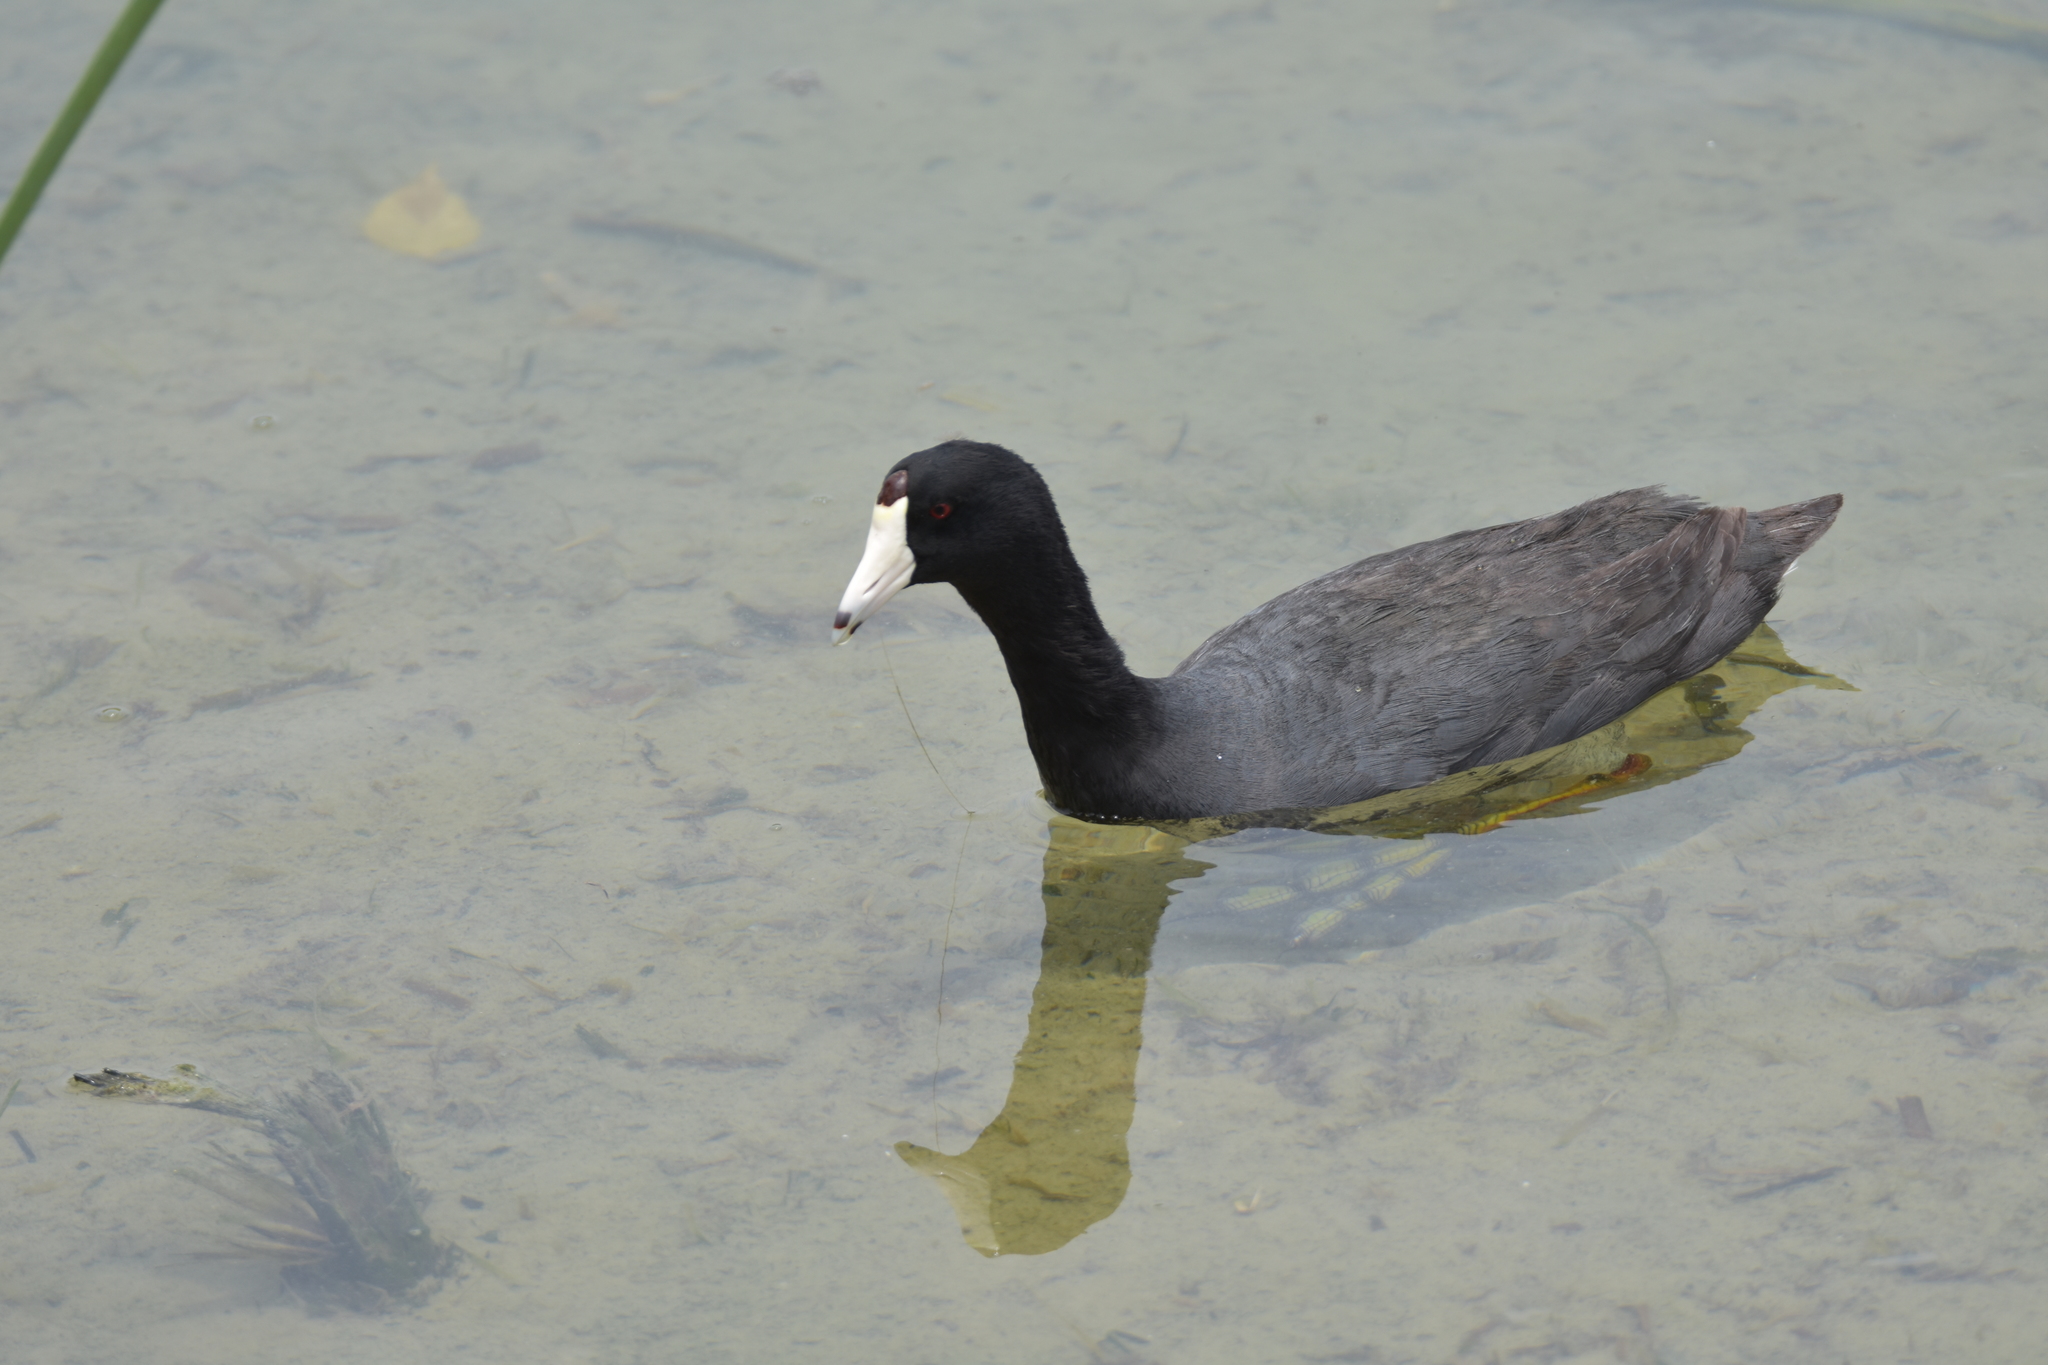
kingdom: Animalia
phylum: Chordata
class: Aves
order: Gruiformes
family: Rallidae
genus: Fulica
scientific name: Fulica americana
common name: American coot
